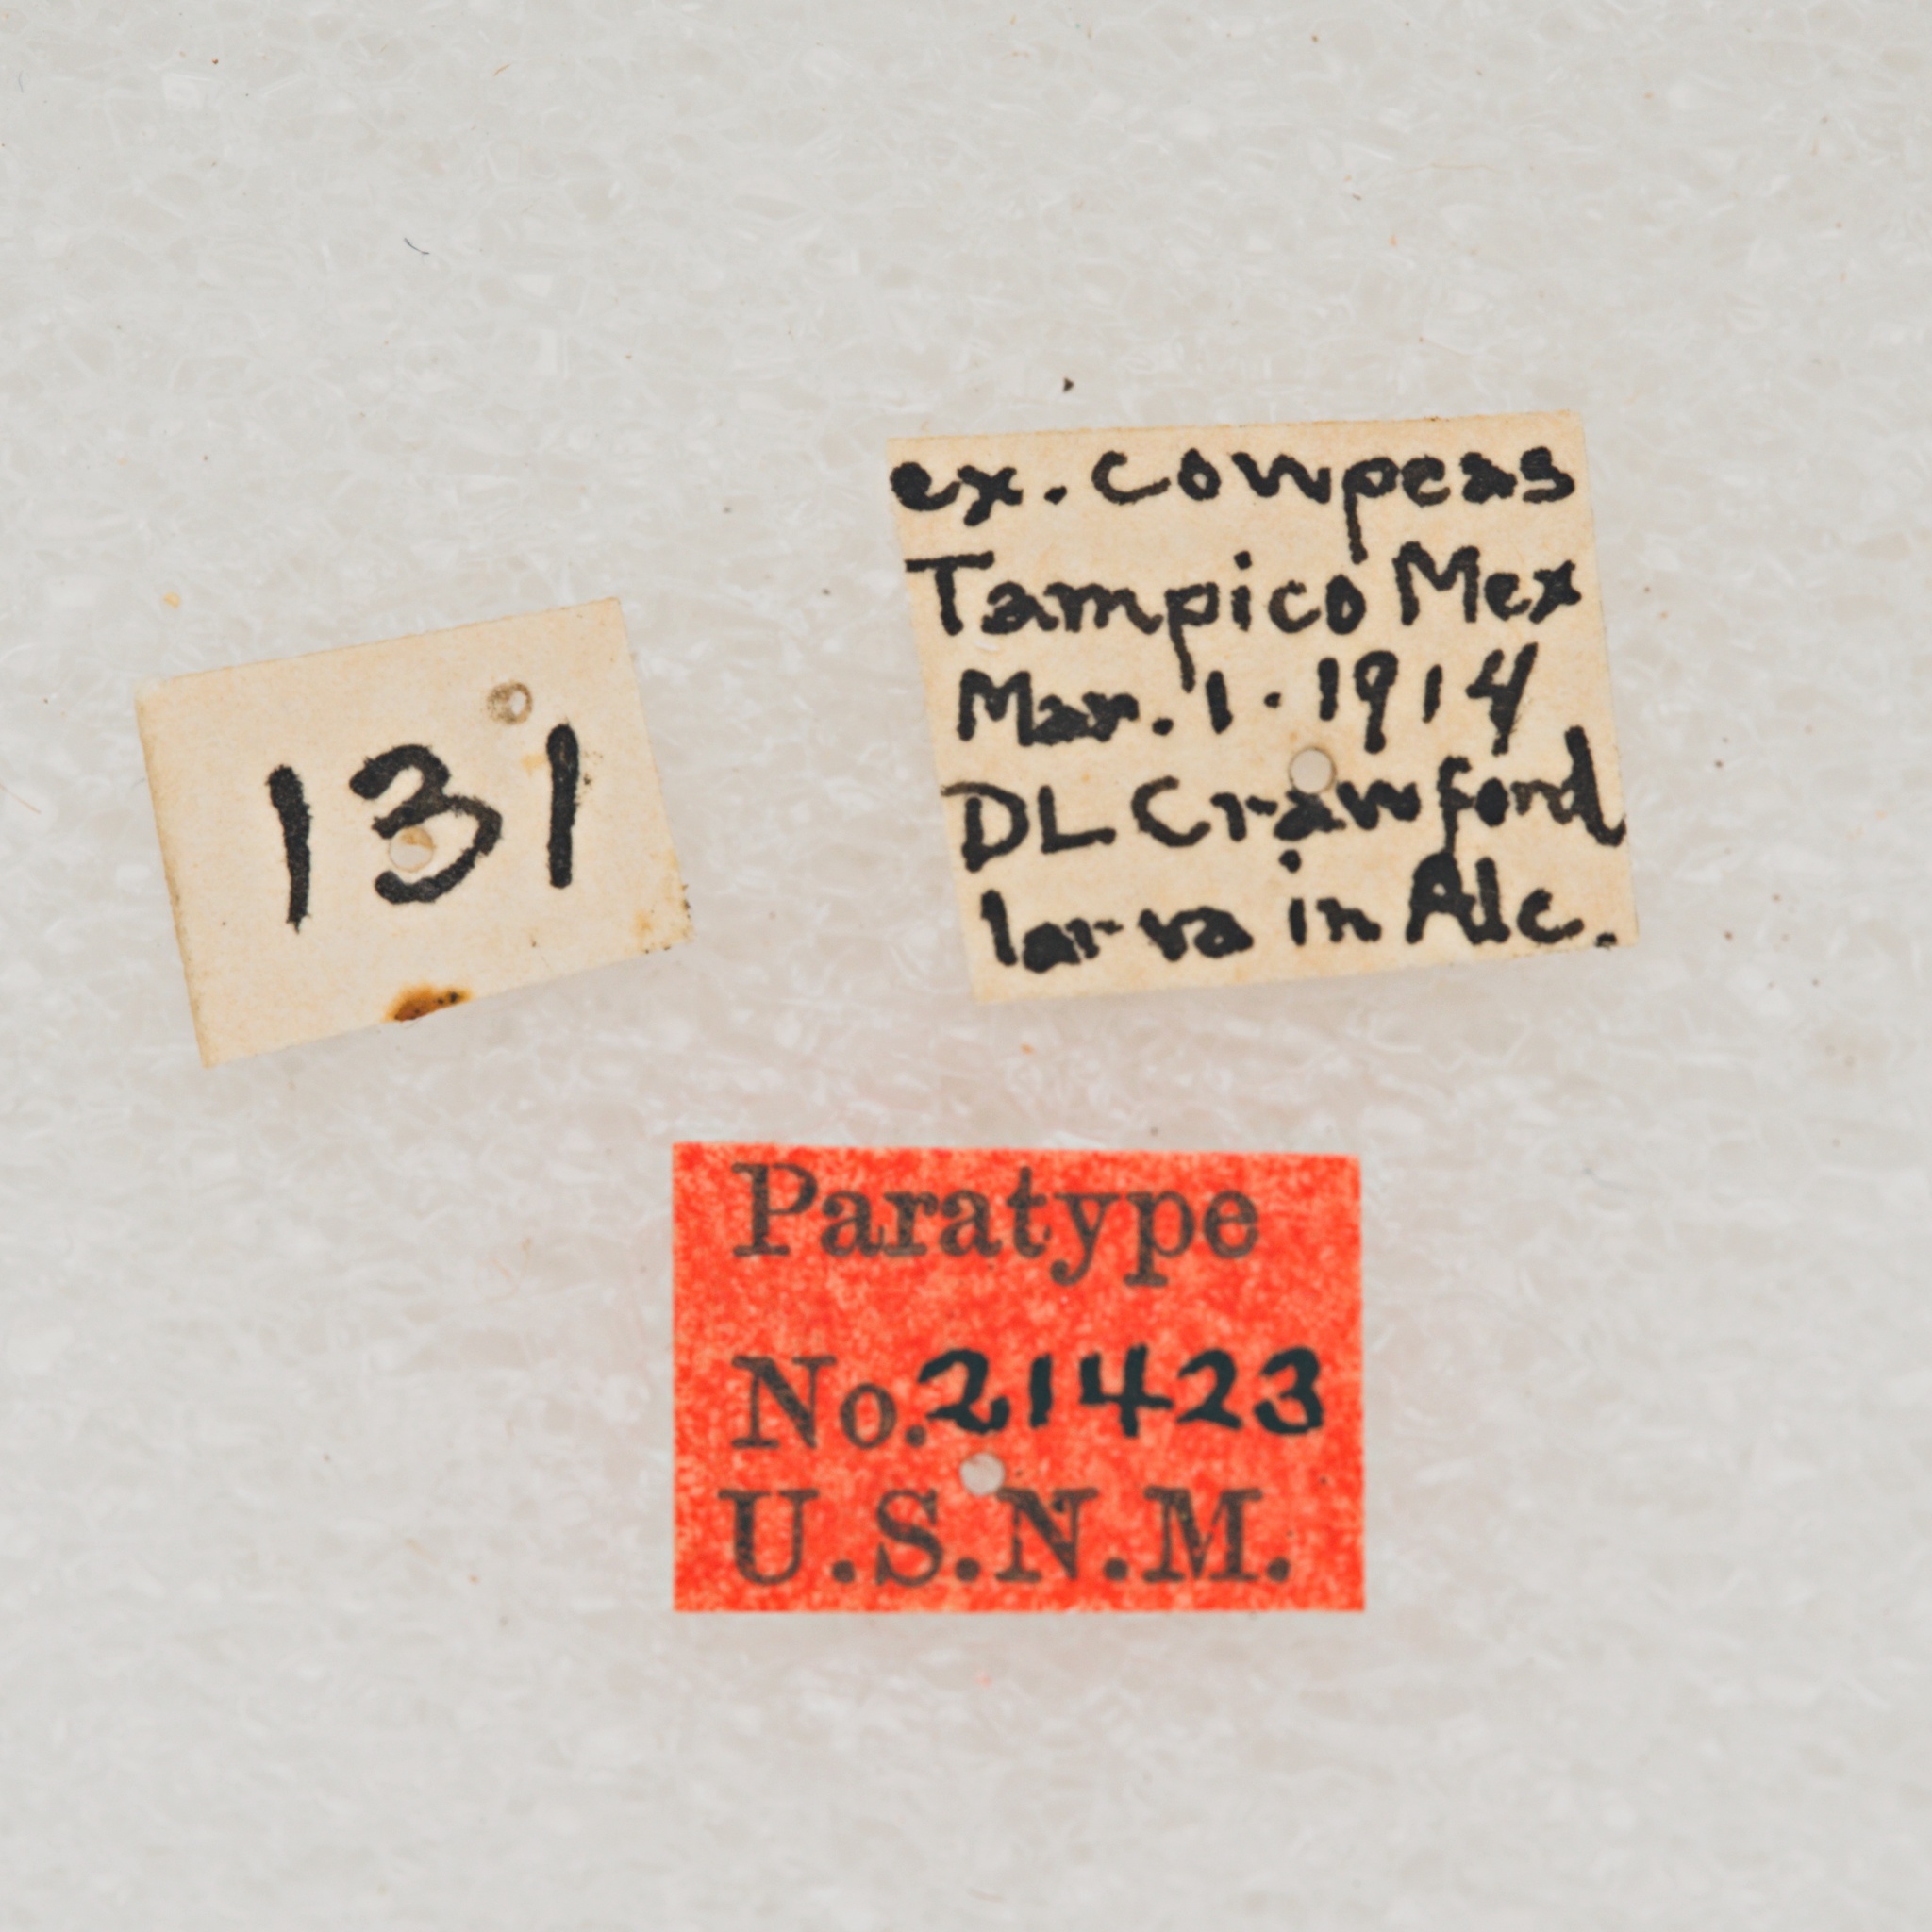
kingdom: Animalia
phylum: Arthropoda
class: Insecta
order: Coleoptera
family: Cerambycidae
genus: Atrypanius
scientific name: Atrypanius irrorellus
